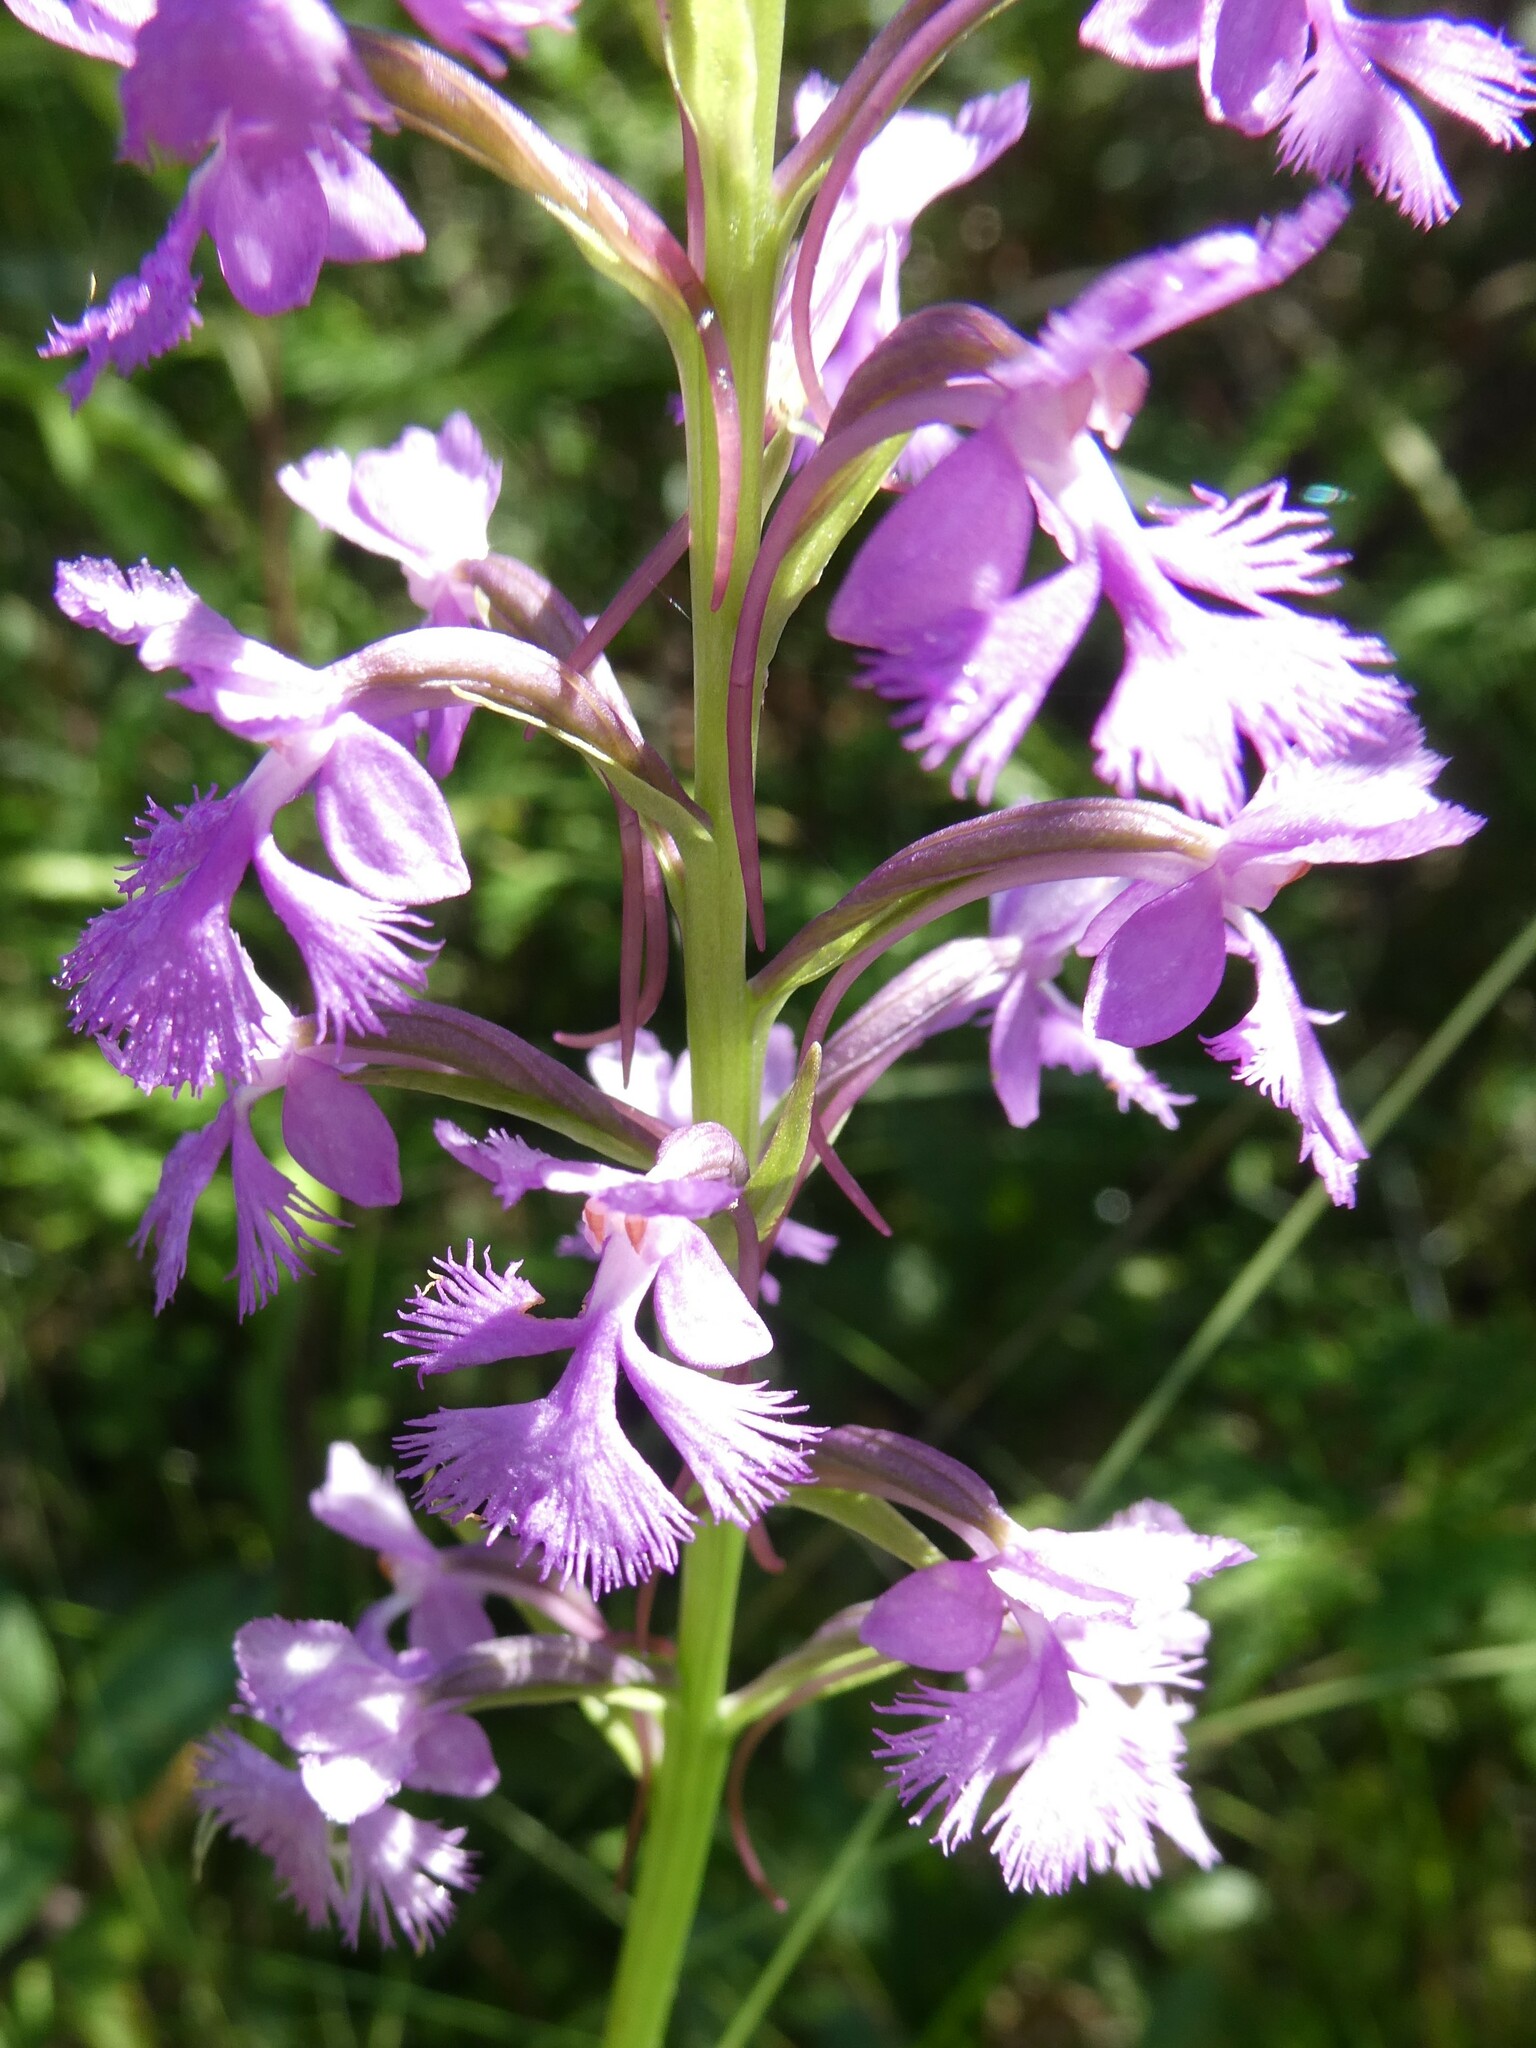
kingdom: Plantae
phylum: Tracheophyta
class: Liliopsida
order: Asparagales
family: Orchidaceae
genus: Platanthera
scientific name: Platanthera psycodes
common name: Lesser purple fringed orchid
